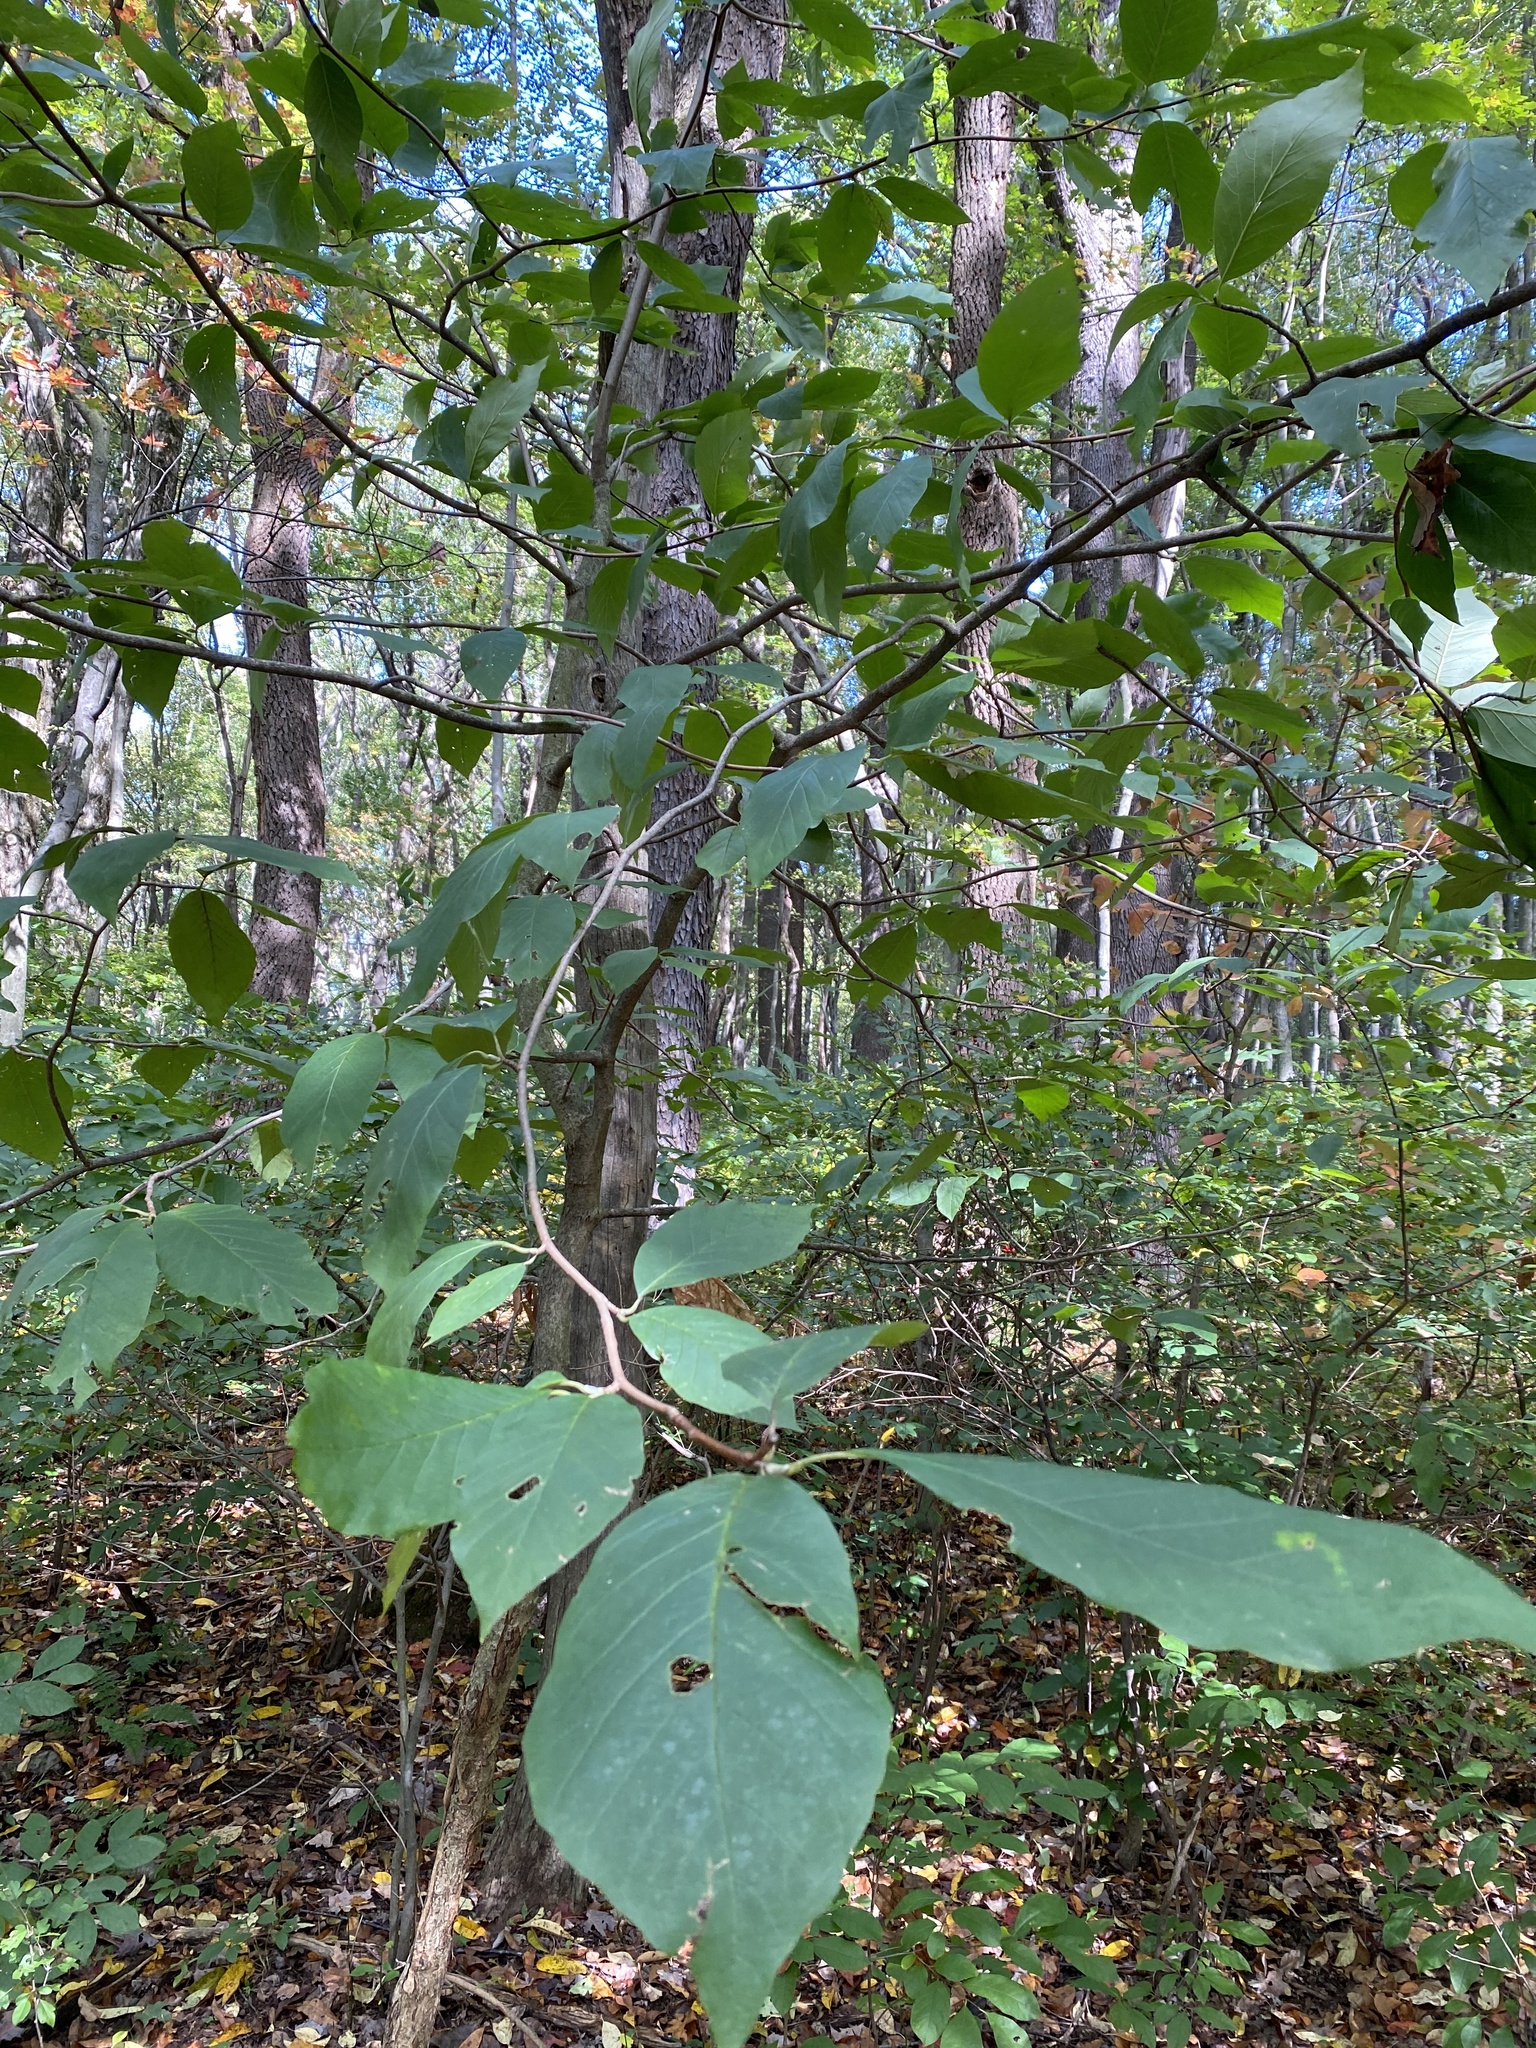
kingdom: Plantae
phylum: Tracheophyta
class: Magnoliopsida
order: Magnoliales
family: Magnoliaceae
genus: Magnolia
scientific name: Magnolia acuminata
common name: Cucumber magnolia
